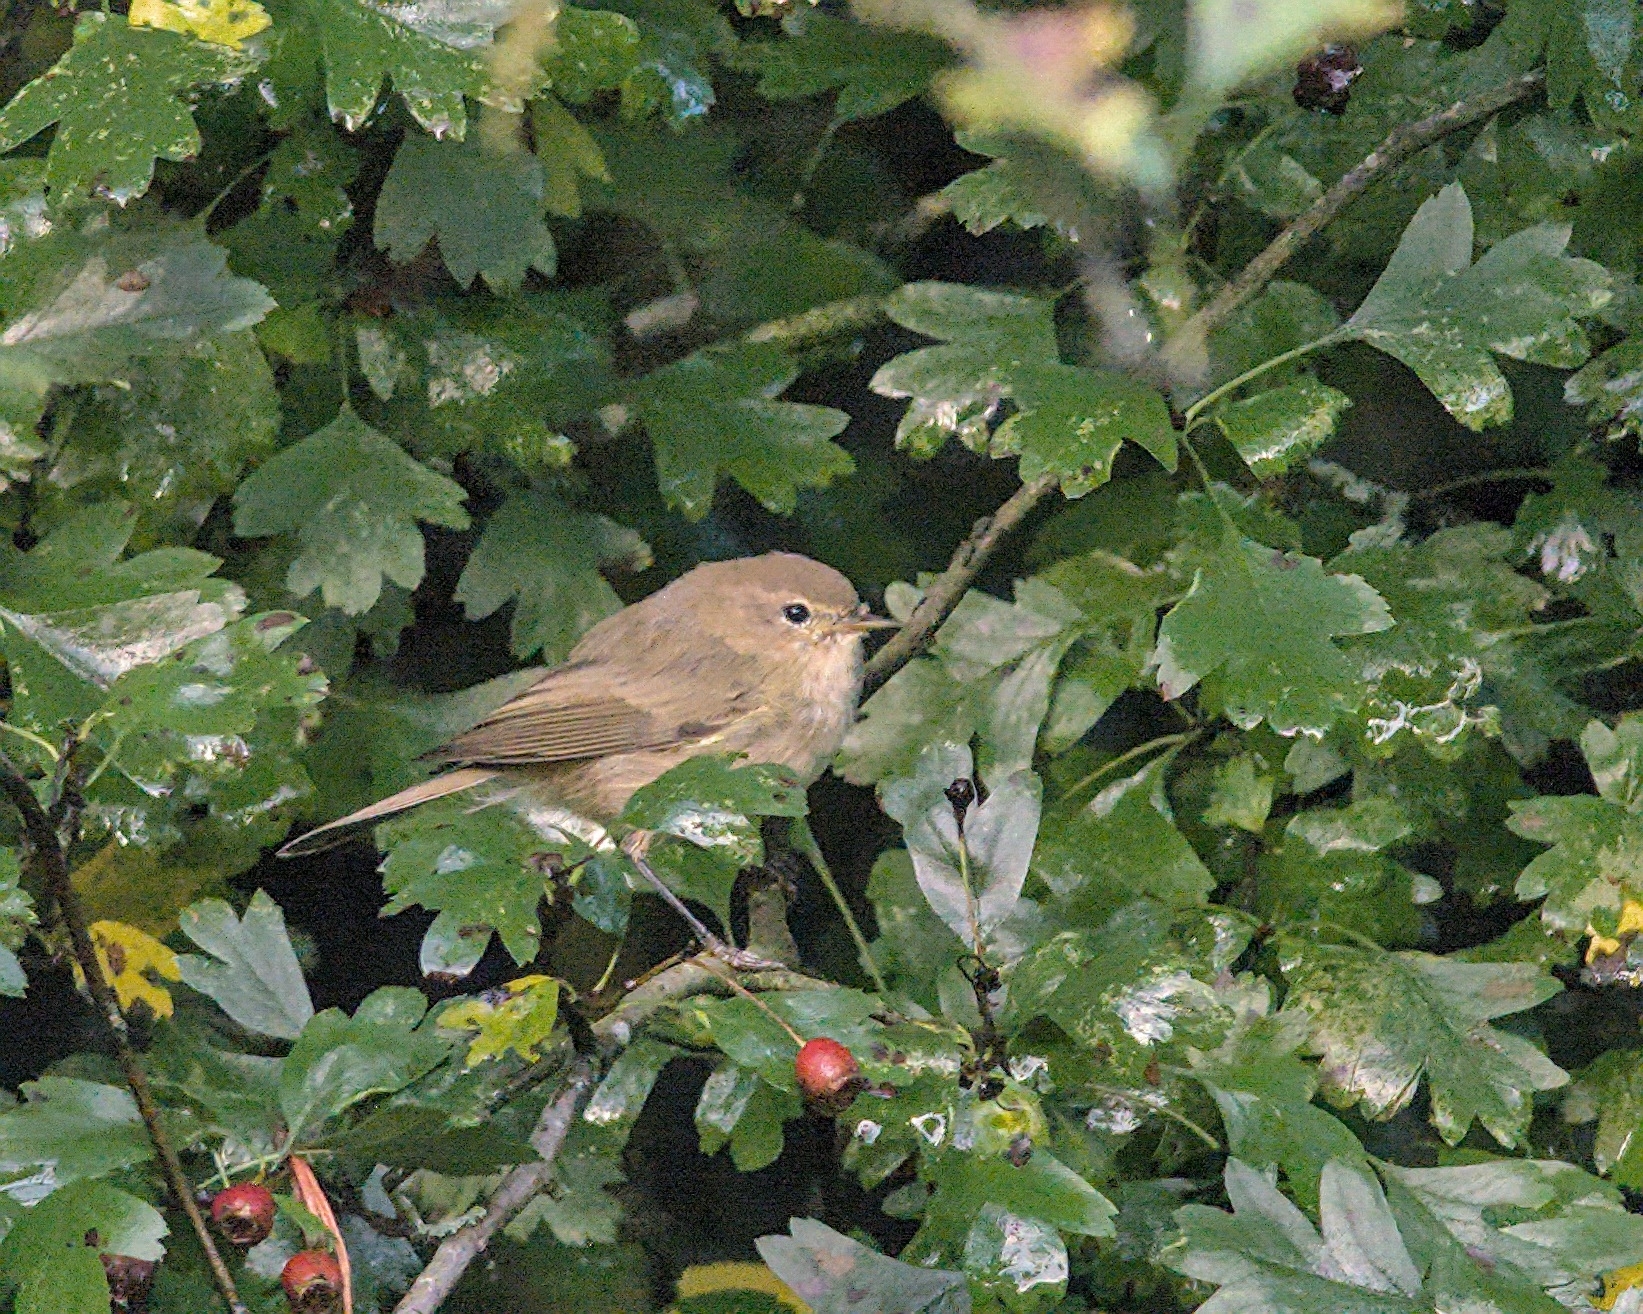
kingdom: Animalia
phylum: Chordata
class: Aves
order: Passeriformes
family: Phylloscopidae
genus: Phylloscopus
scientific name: Phylloscopus collybita
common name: Common chiffchaff
